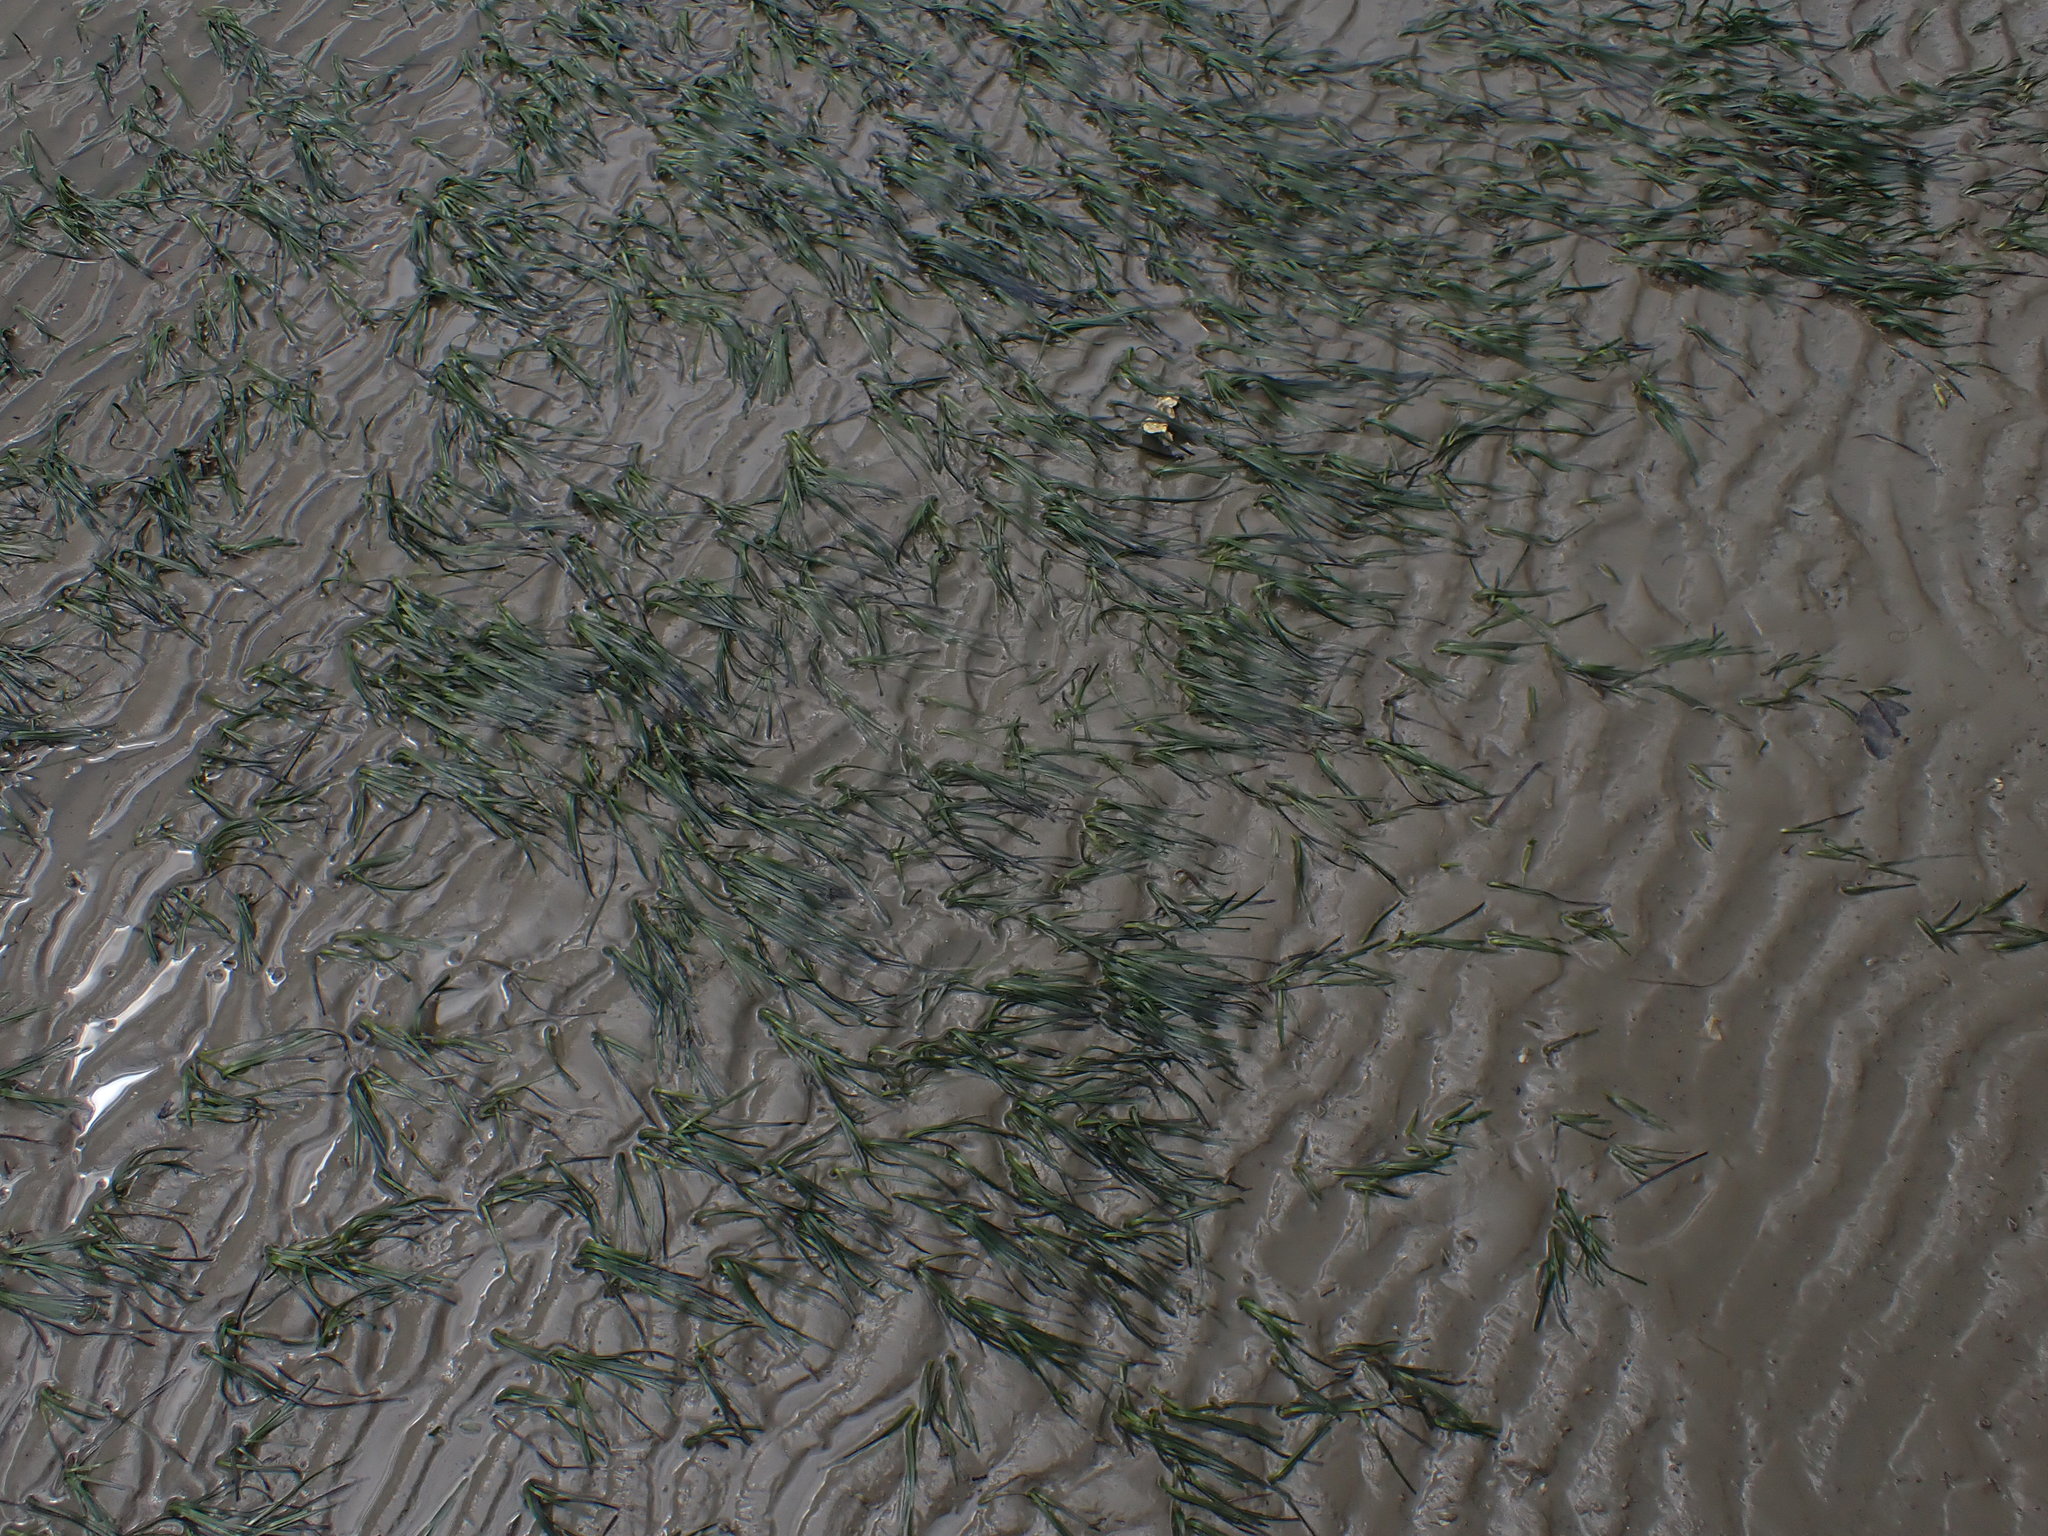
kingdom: Plantae
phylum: Tracheophyta
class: Liliopsida
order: Alismatales
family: Zosteraceae
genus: Zostera
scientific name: Zostera novazelandica
